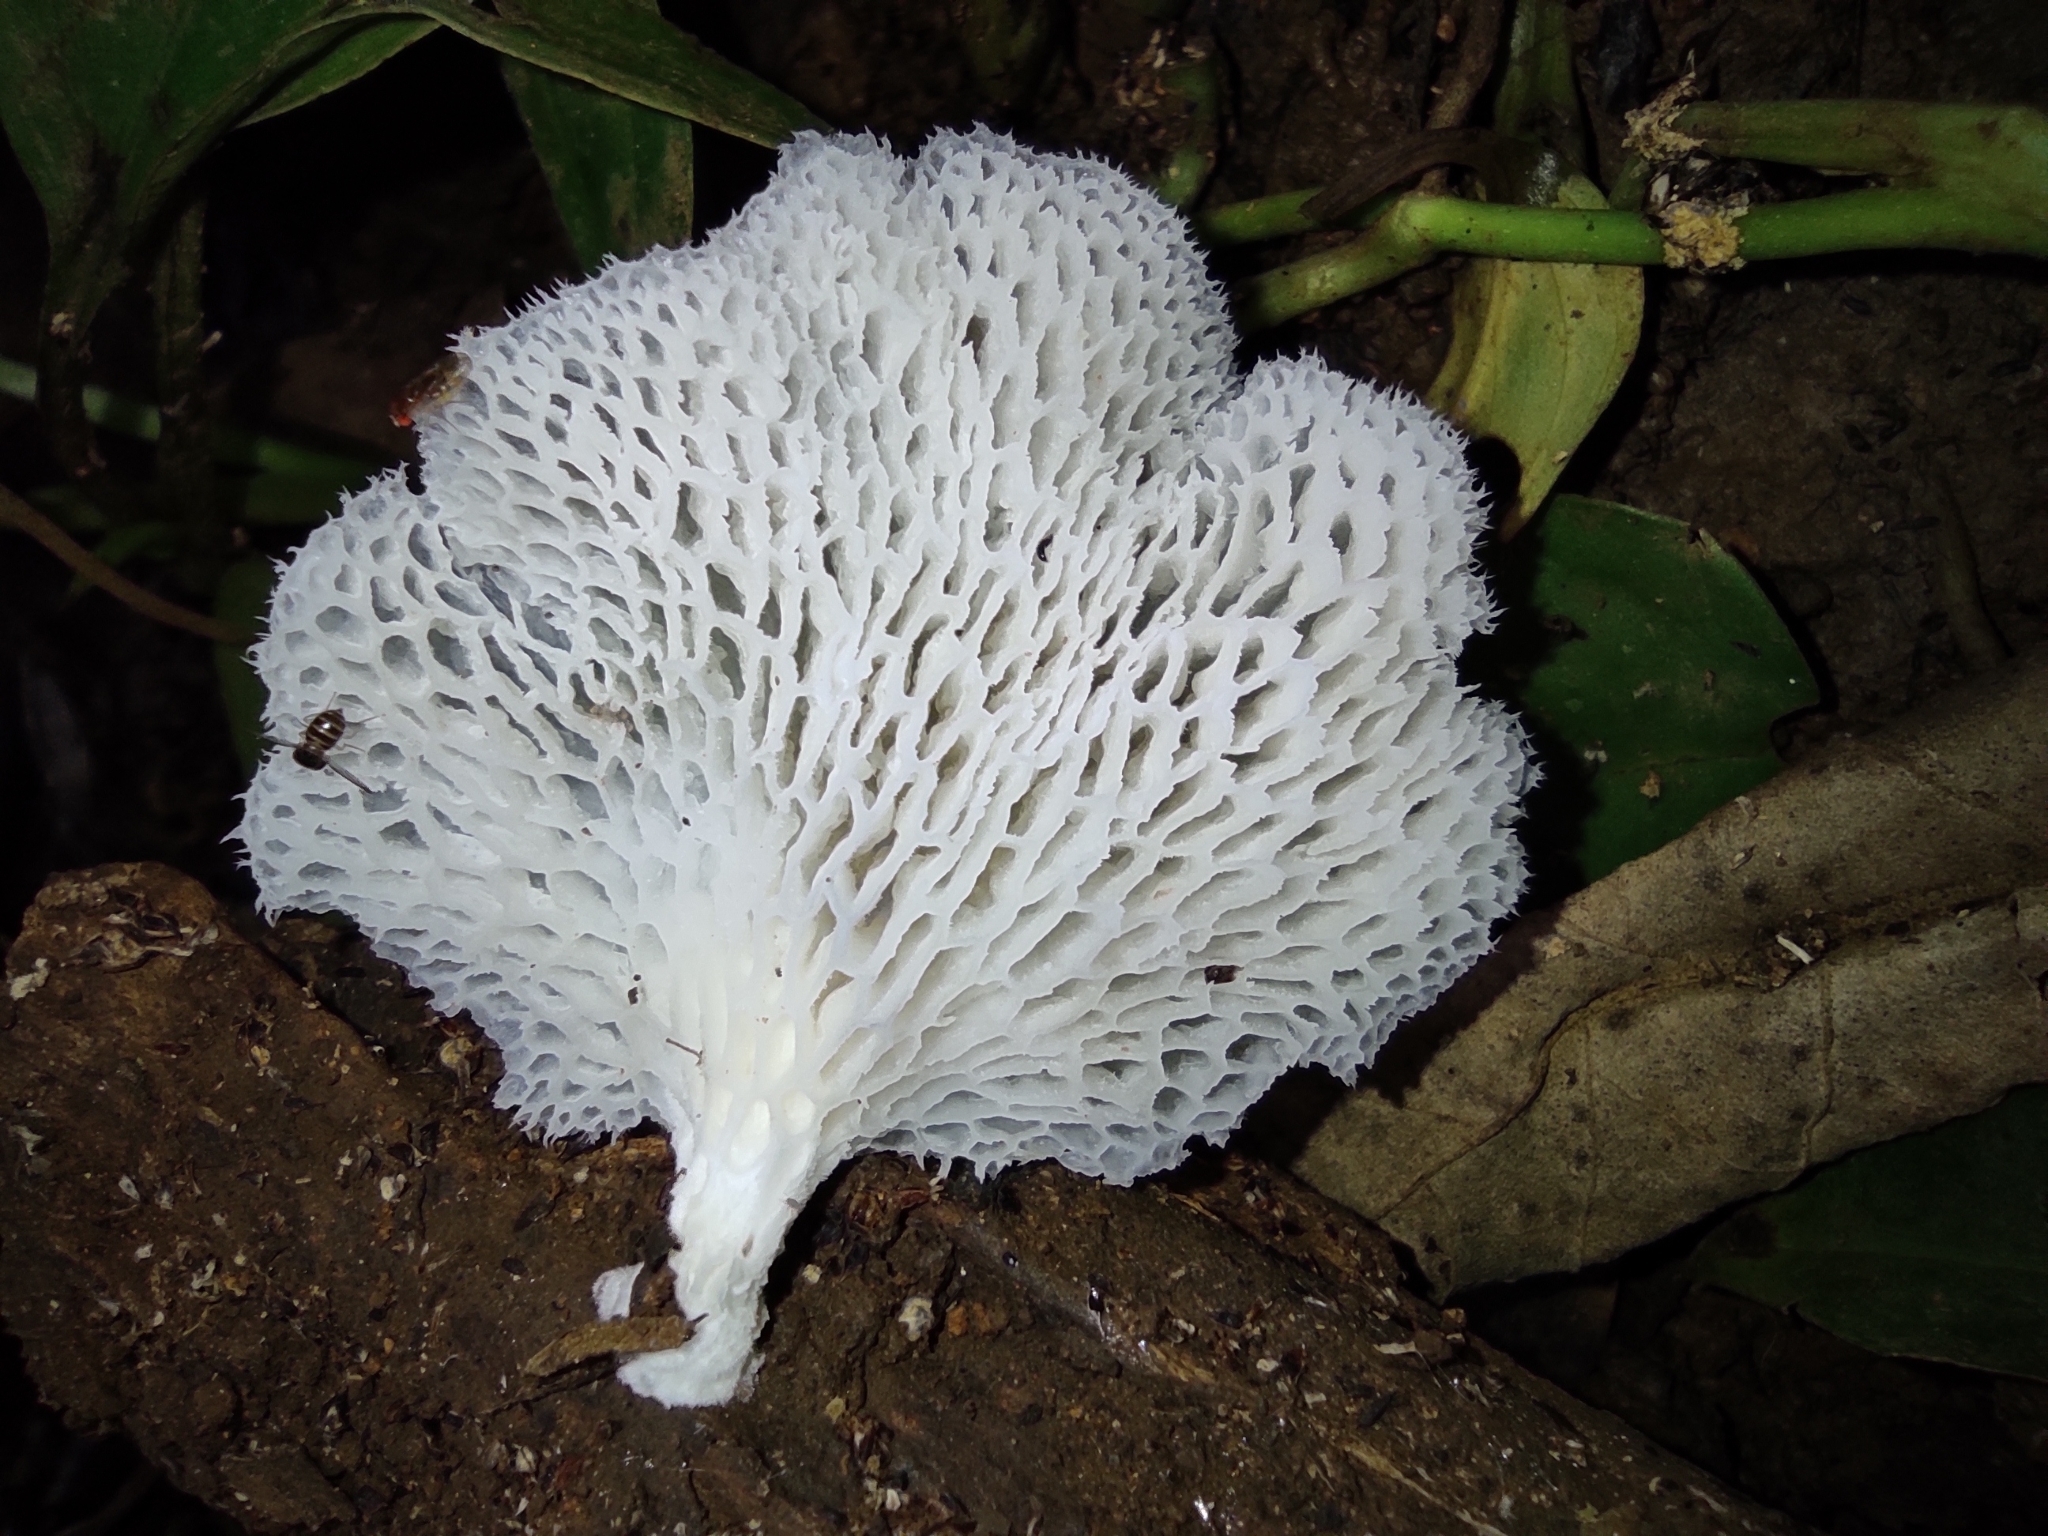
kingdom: Fungi
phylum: Basidiomycota
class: Agaricomycetes
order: Polyporales
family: Polyporaceae
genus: Favolus
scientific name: Favolus tenuiculus
